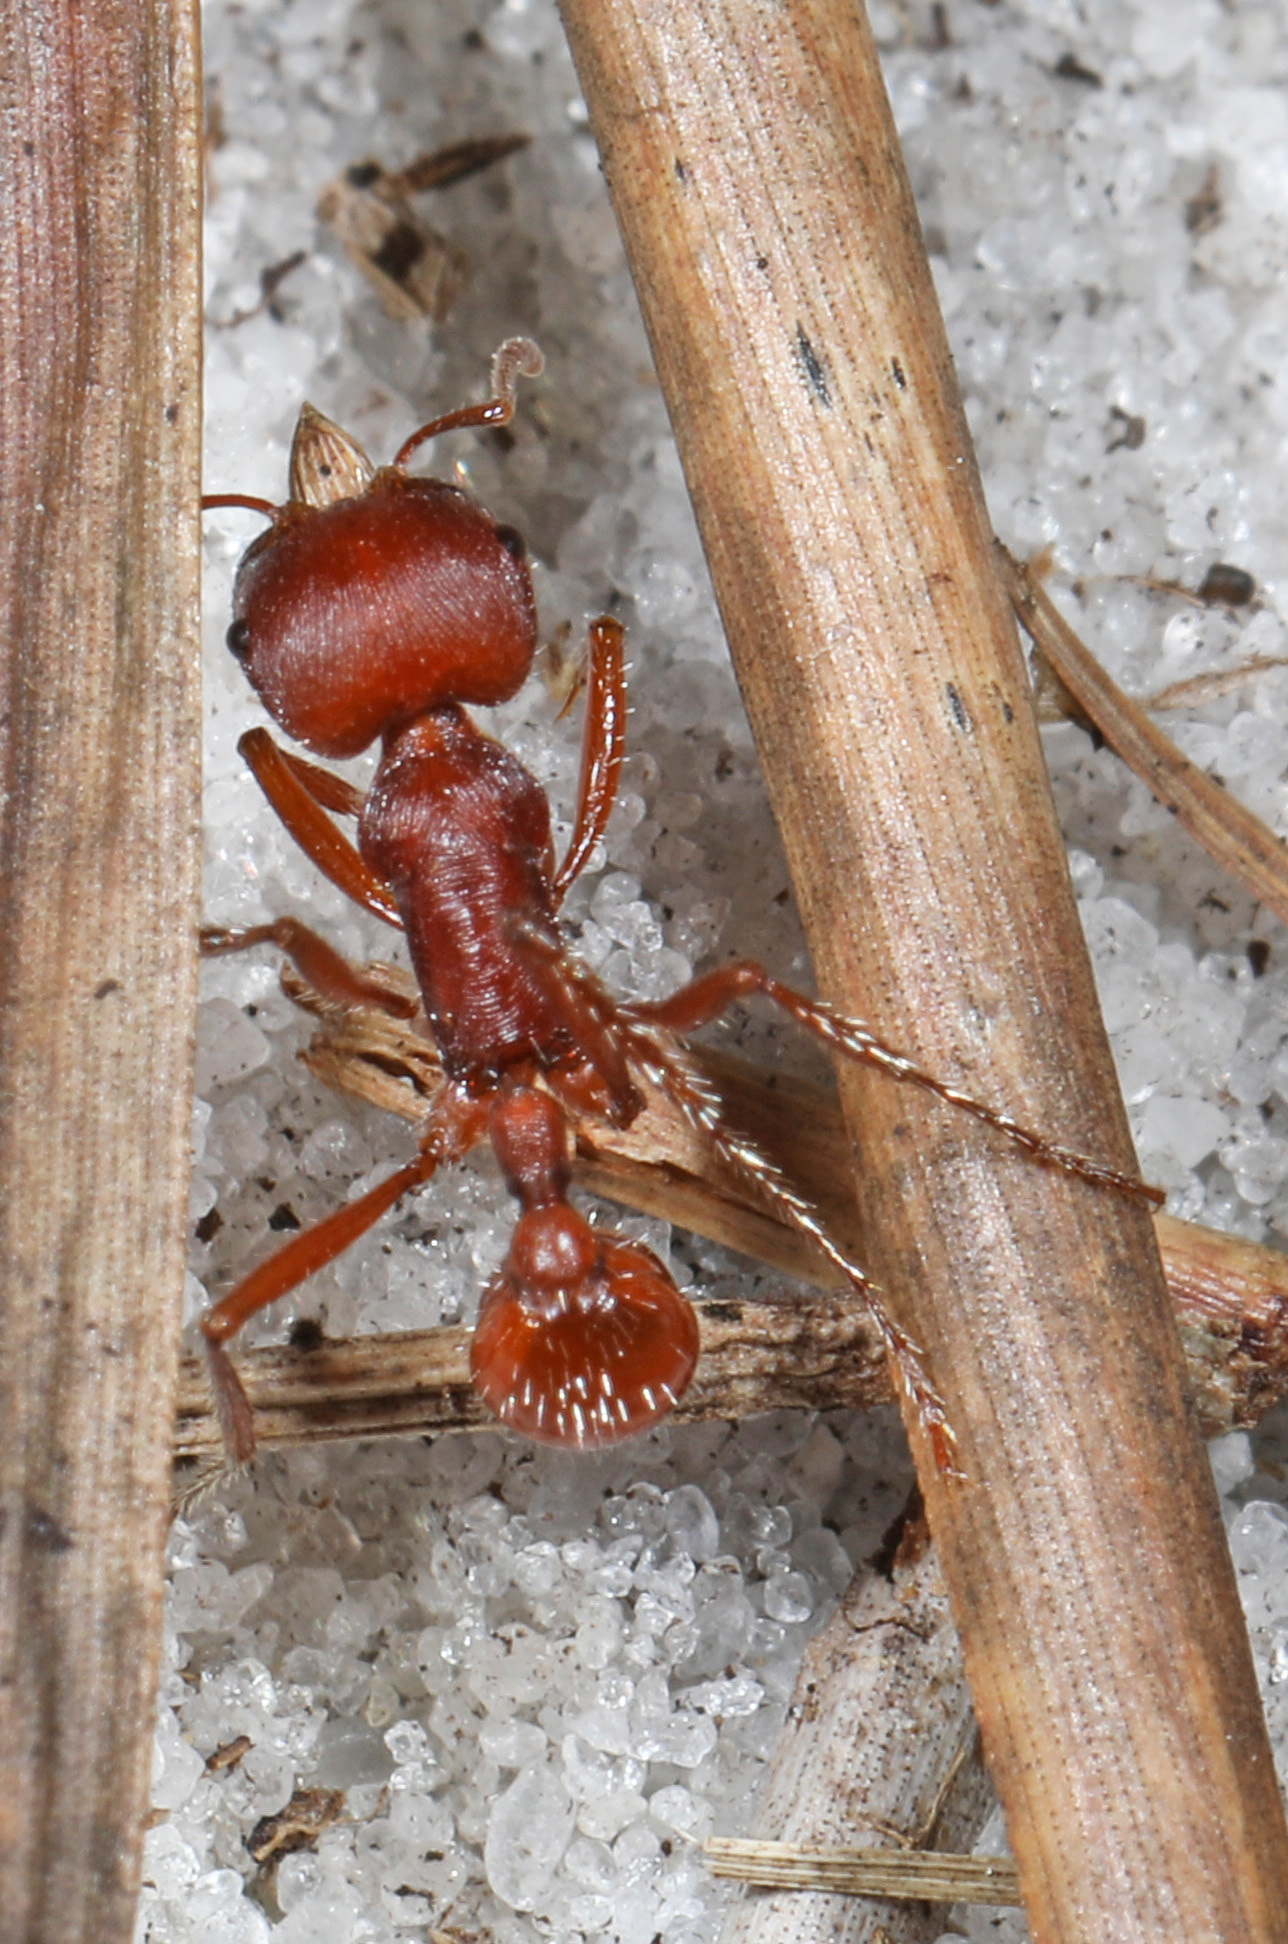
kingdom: Animalia
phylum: Arthropoda
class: Insecta
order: Hymenoptera
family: Formicidae
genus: Pogonomyrmex
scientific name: Pogonomyrmex badius
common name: Florida harvester ant
